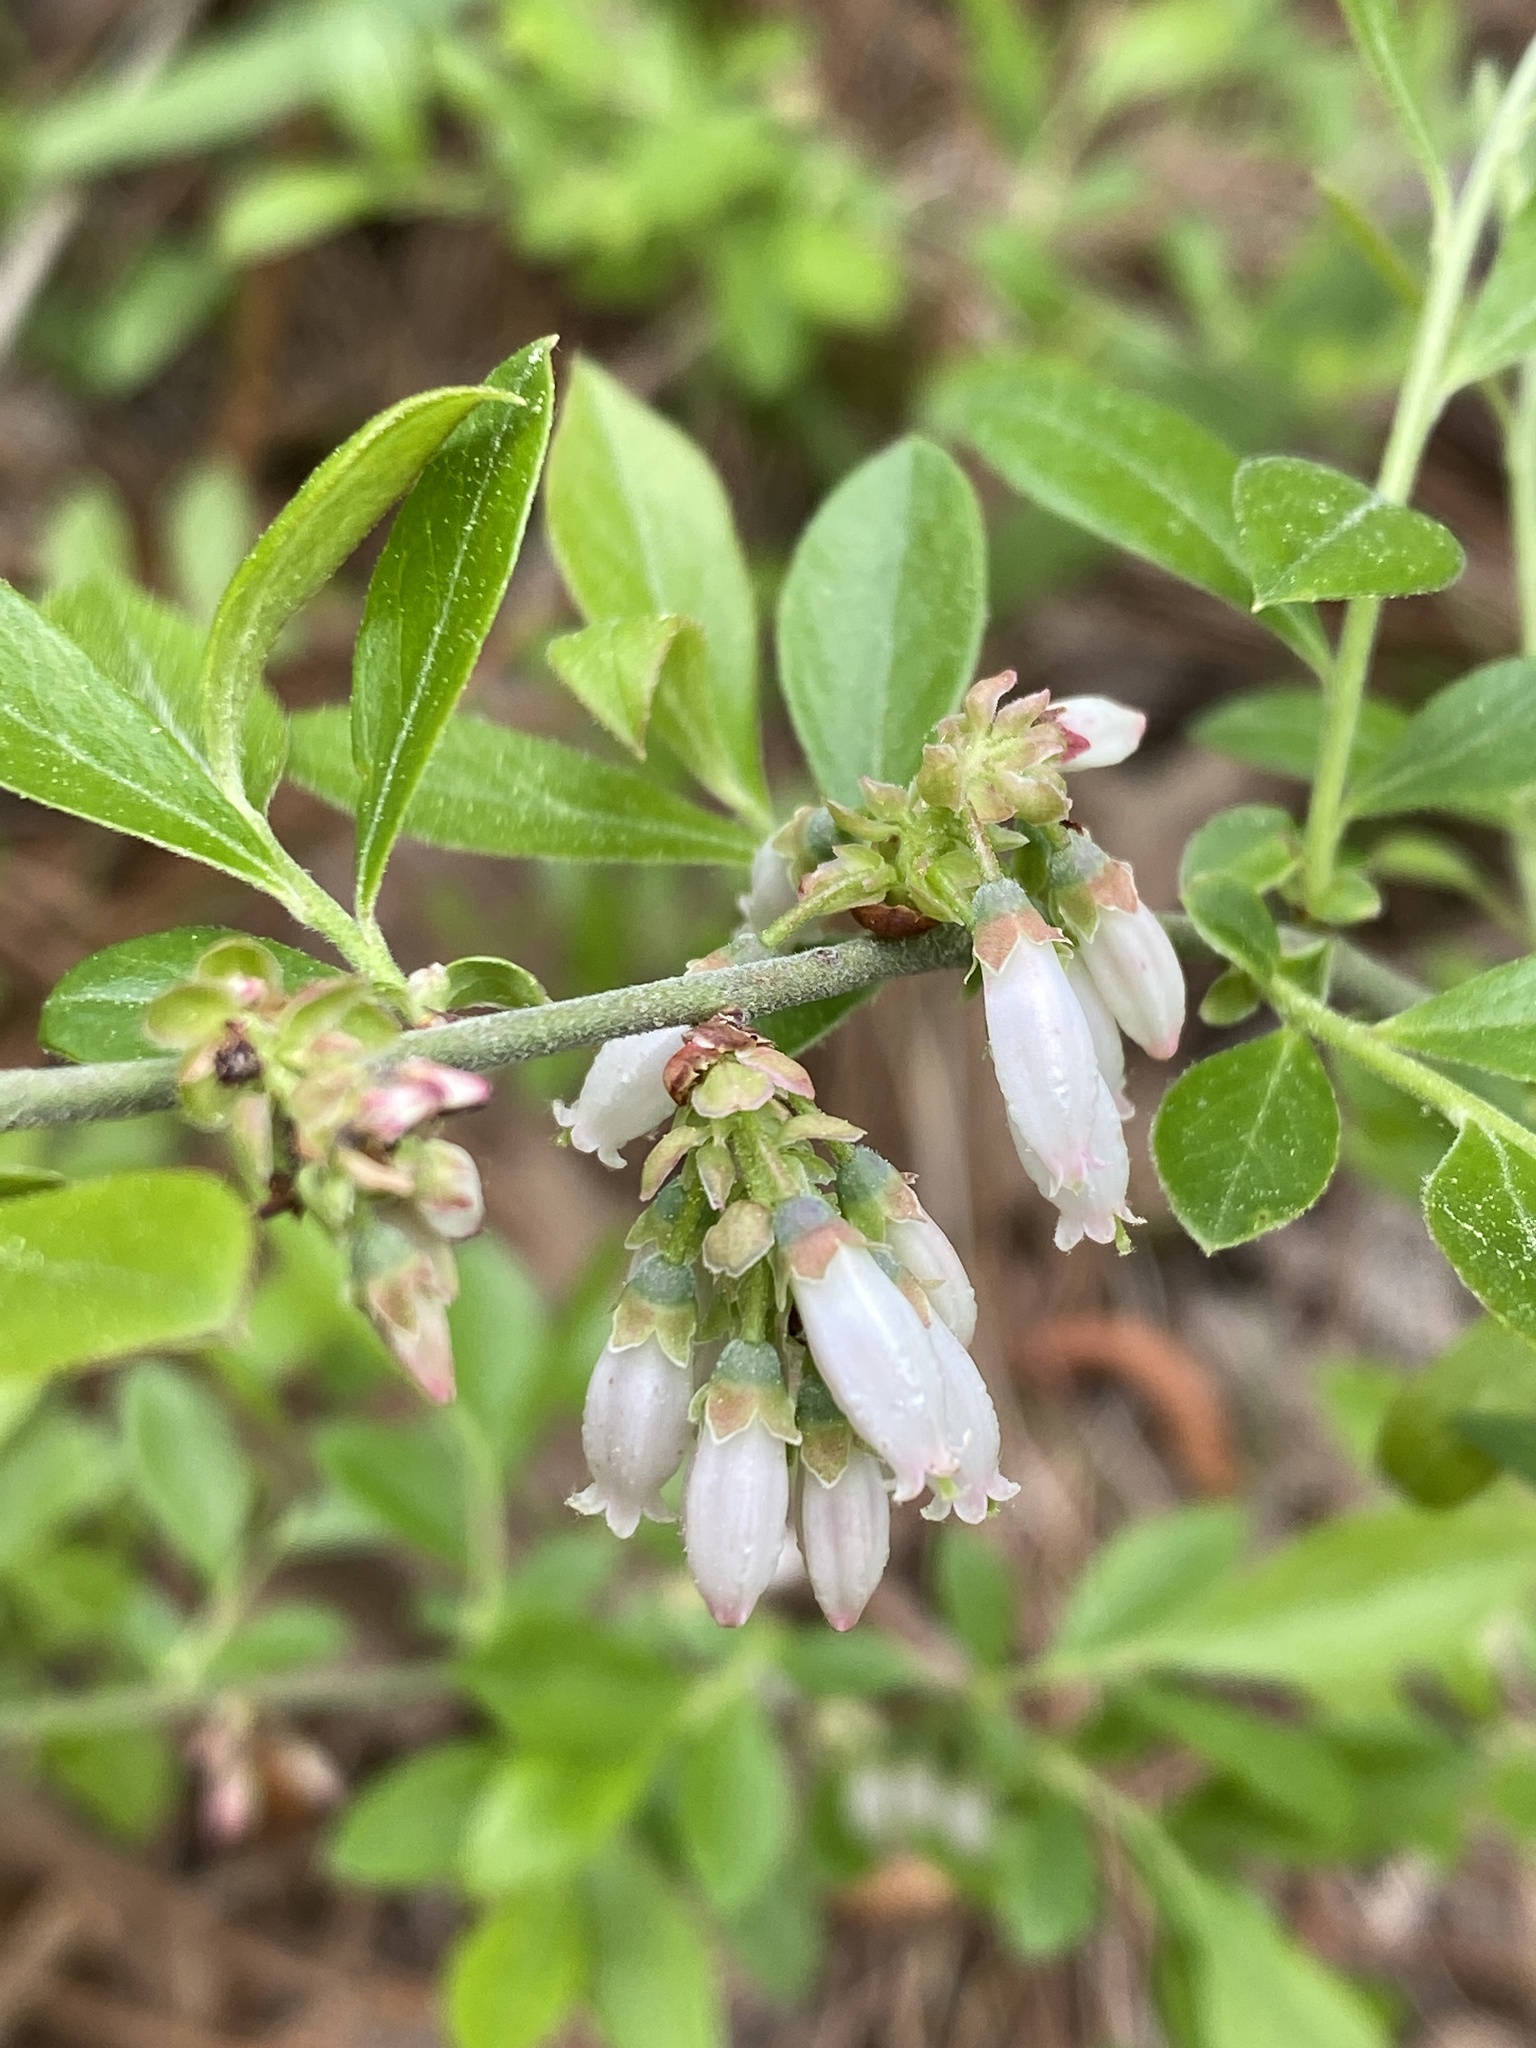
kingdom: Plantae
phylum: Tracheophyta
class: Magnoliopsida
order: Ericales
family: Ericaceae
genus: Vaccinium
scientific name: Vaccinium tenellum
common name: Southern blueberry
